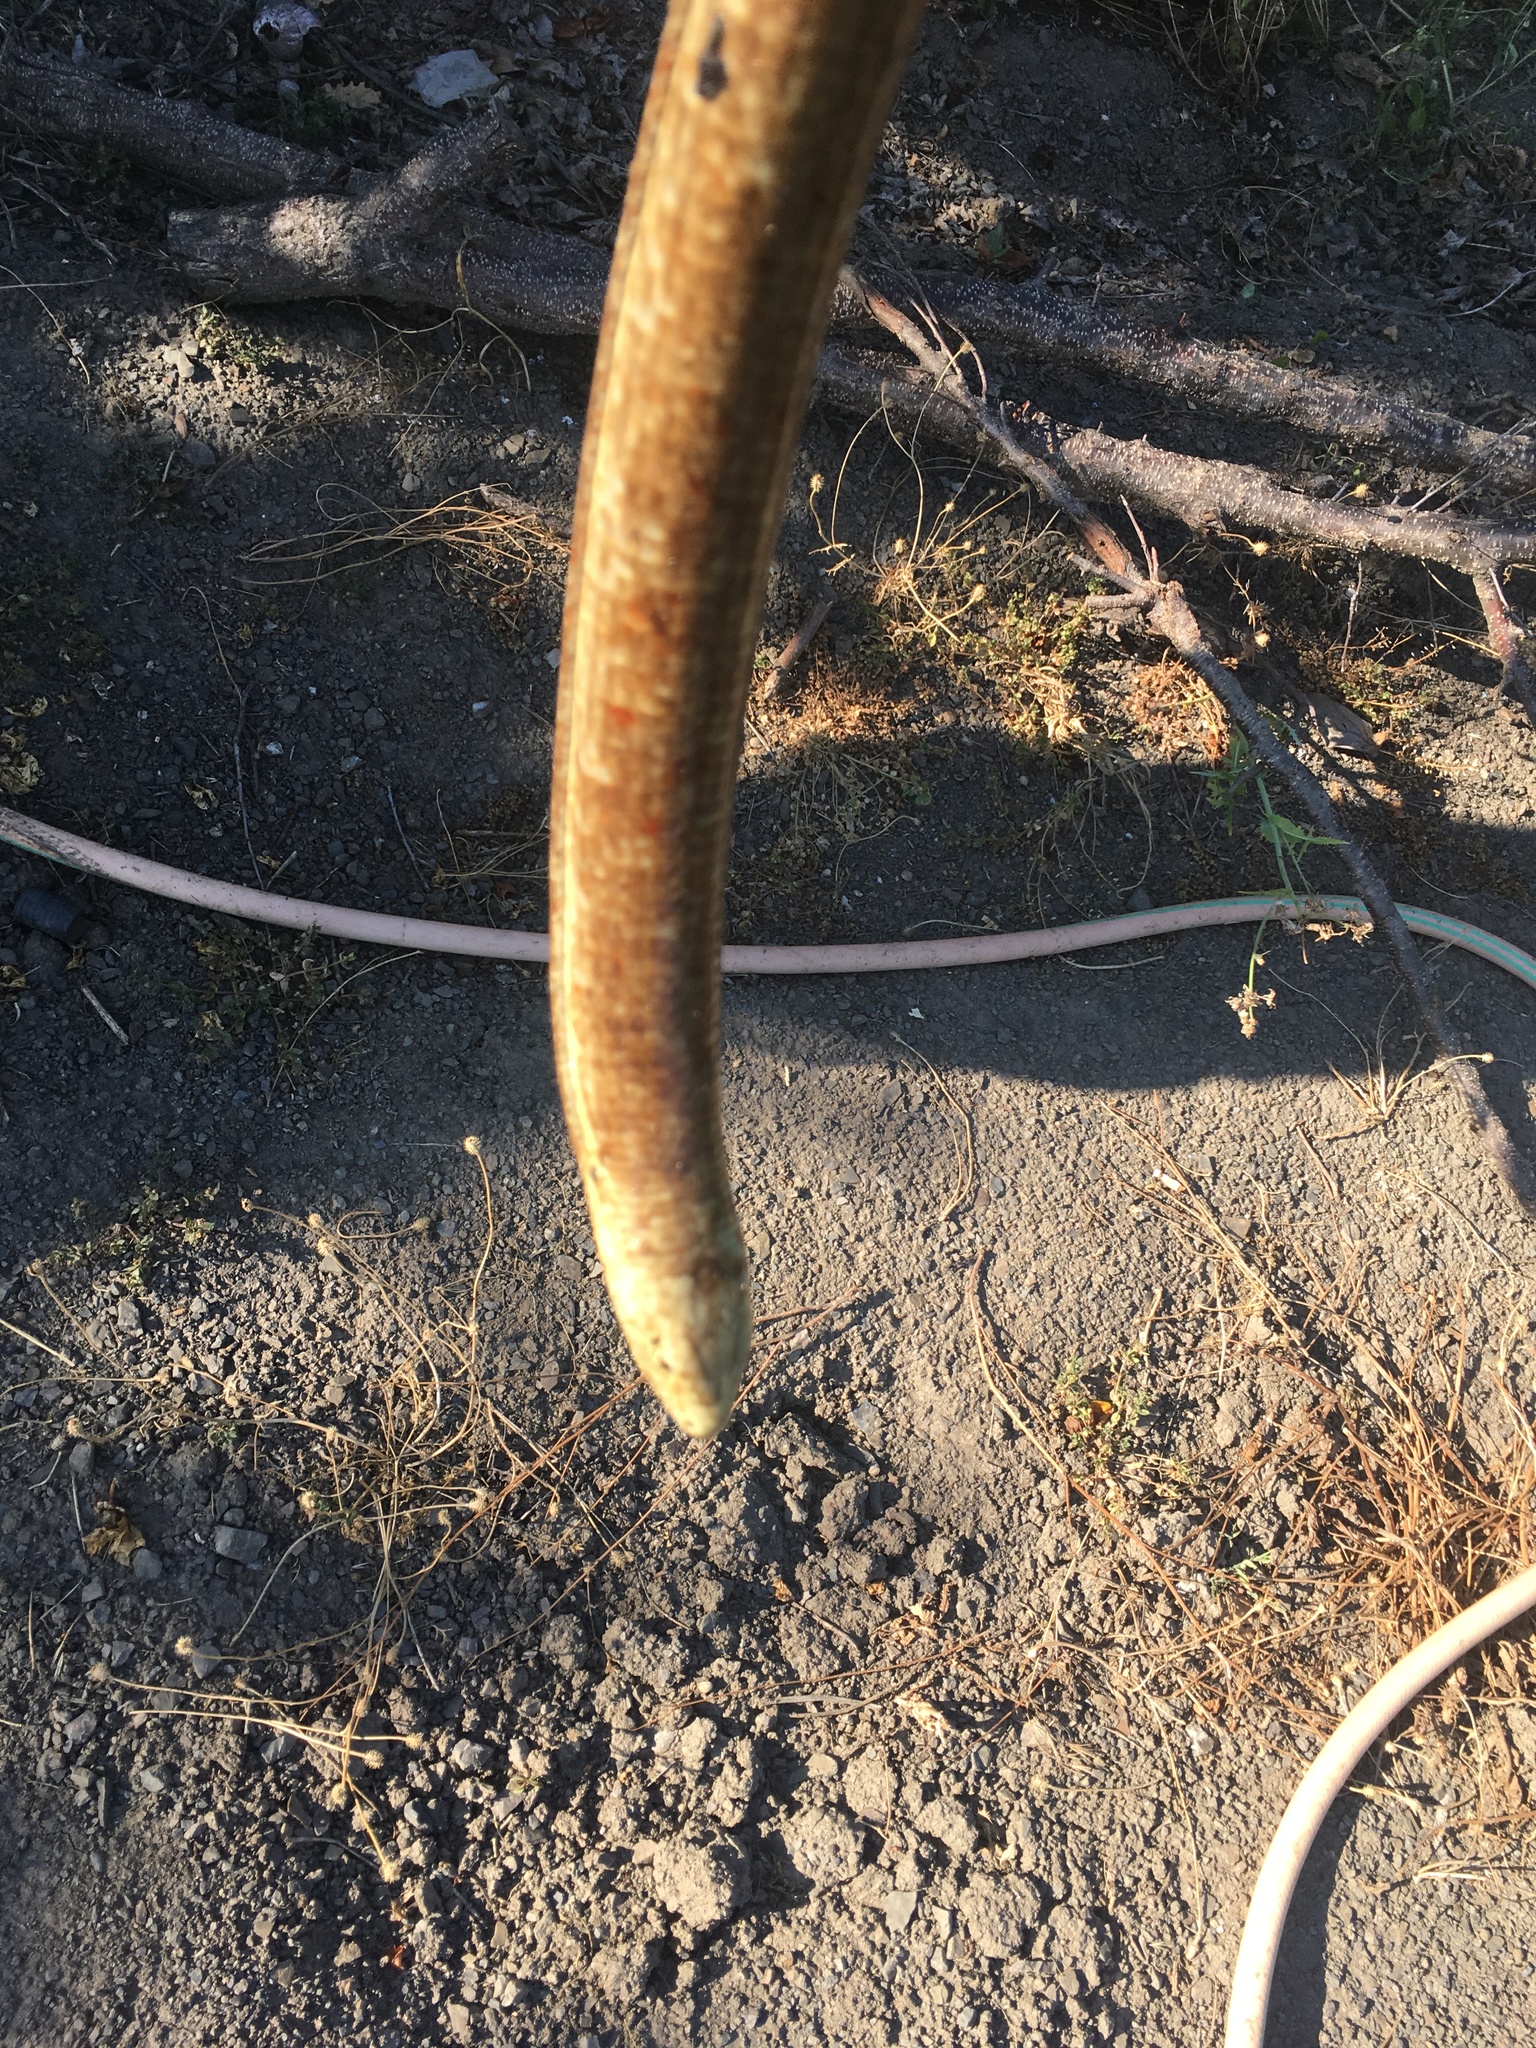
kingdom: Animalia
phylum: Chordata
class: Squamata
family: Anguidae
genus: Pseudopus
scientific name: Pseudopus apodus
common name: European glass lizard
